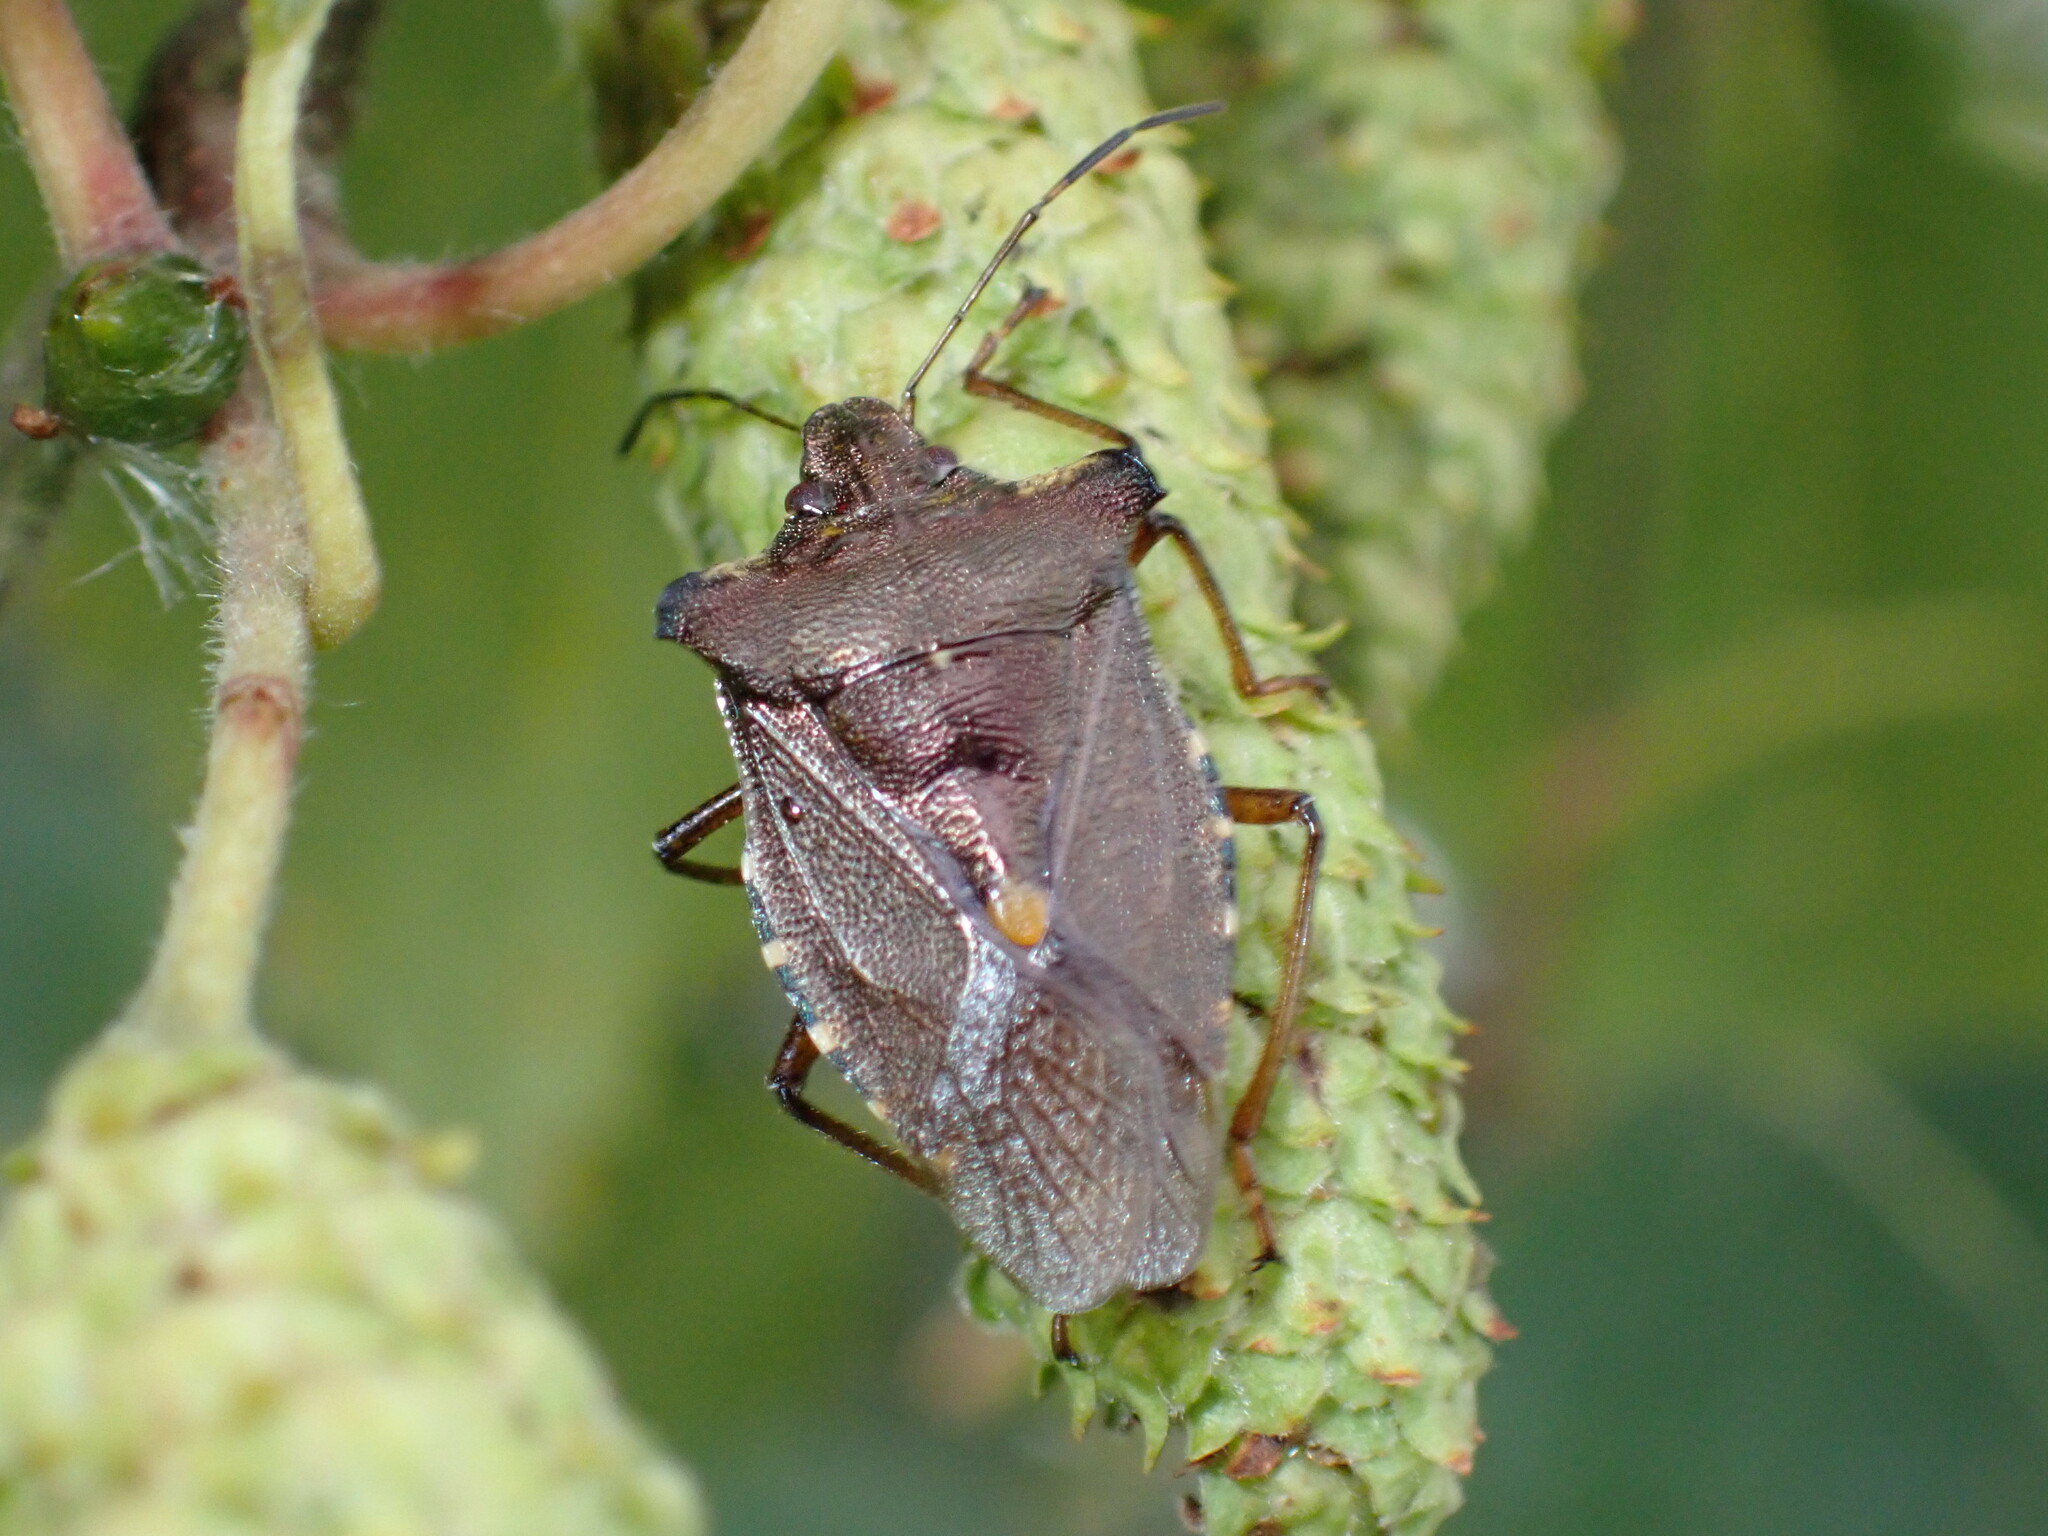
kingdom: Animalia
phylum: Arthropoda
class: Insecta
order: Hemiptera
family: Pentatomidae
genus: Pentatoma
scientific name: Pentatoma rufipes
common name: Forest bug
